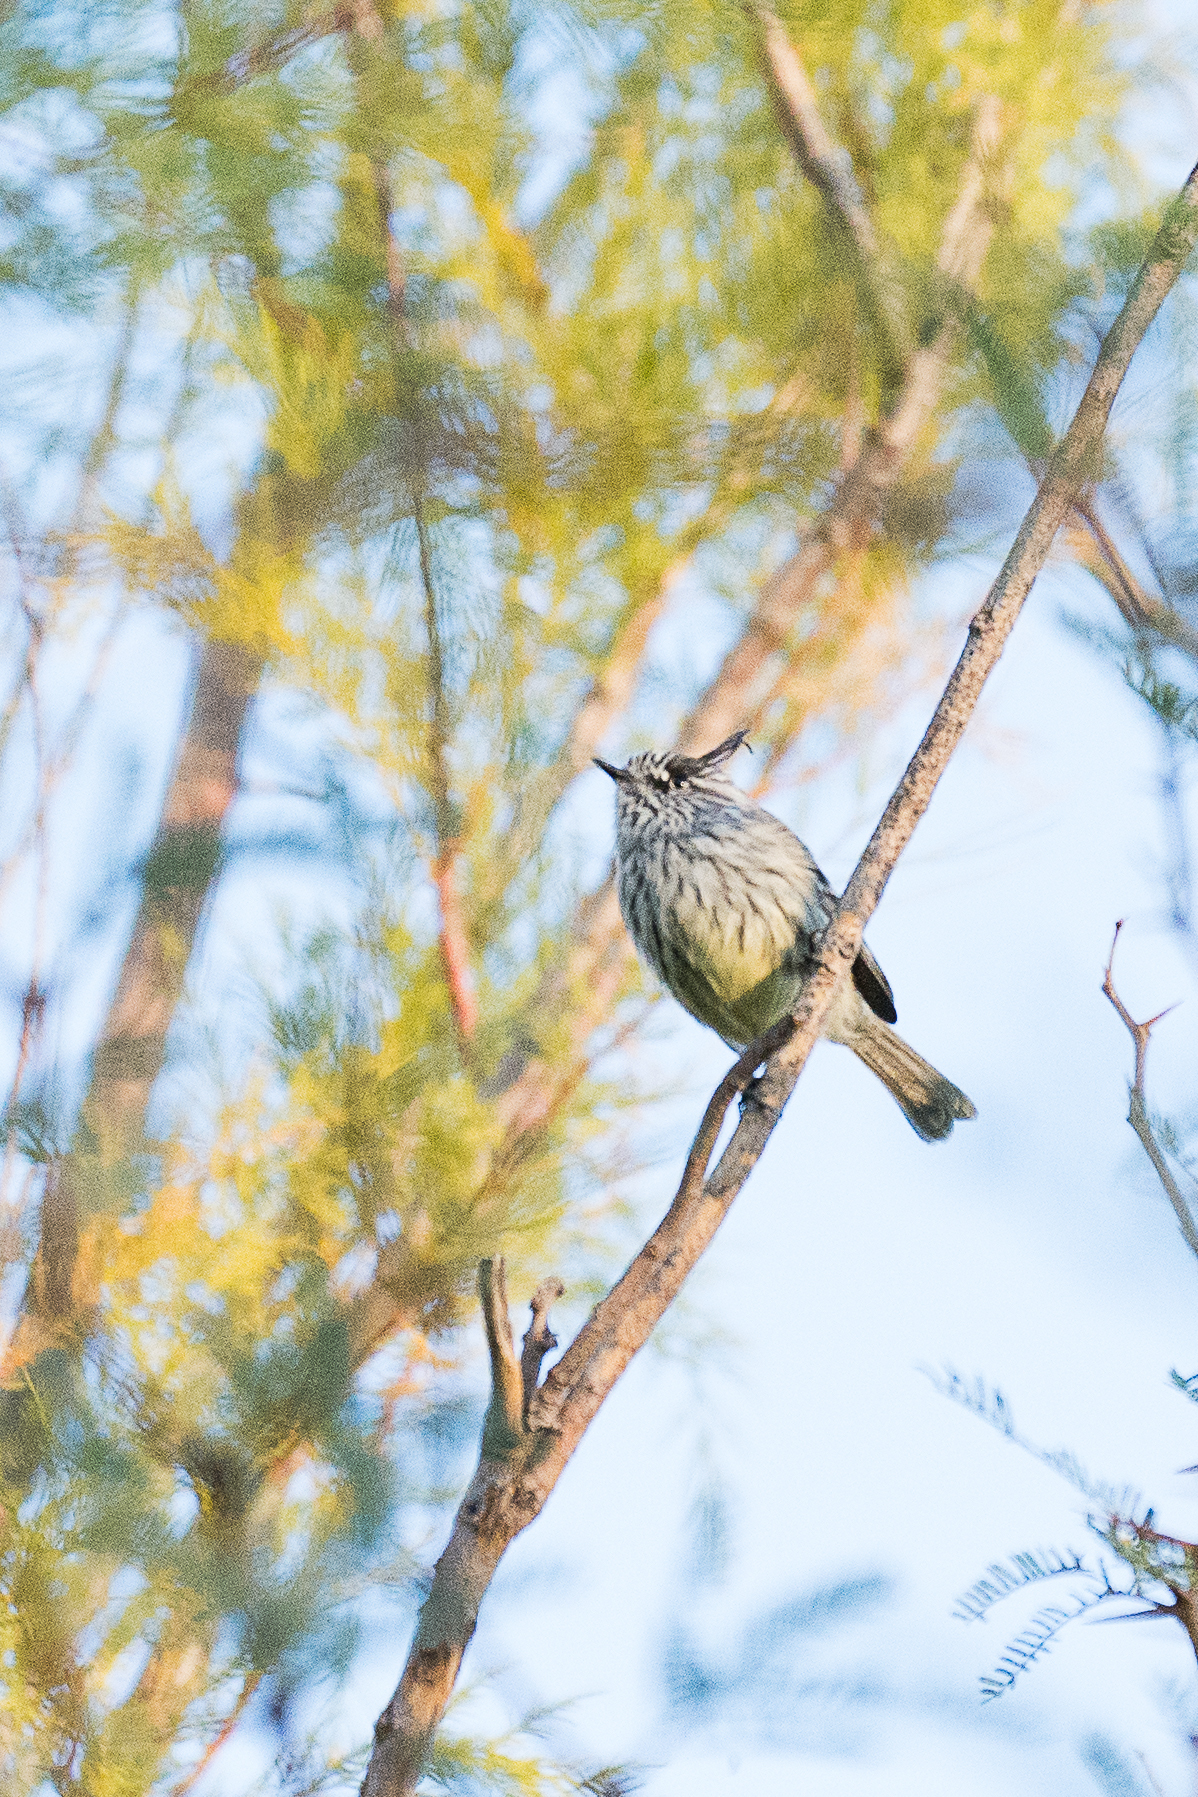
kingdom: Animalia
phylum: Chordata
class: Aves
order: Passeriformes
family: Tyrannidae
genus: Anairetes
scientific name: Anairetes parulus
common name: Tufted tit-tyrant
